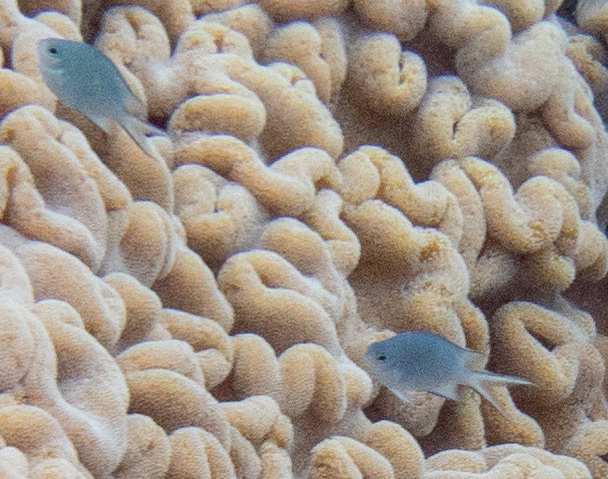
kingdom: Animalia
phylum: Chordata
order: Perciformes
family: Pomacentridae
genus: Acanthochromis
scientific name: Acanthochromis polyacanthus
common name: Spiny chromis
